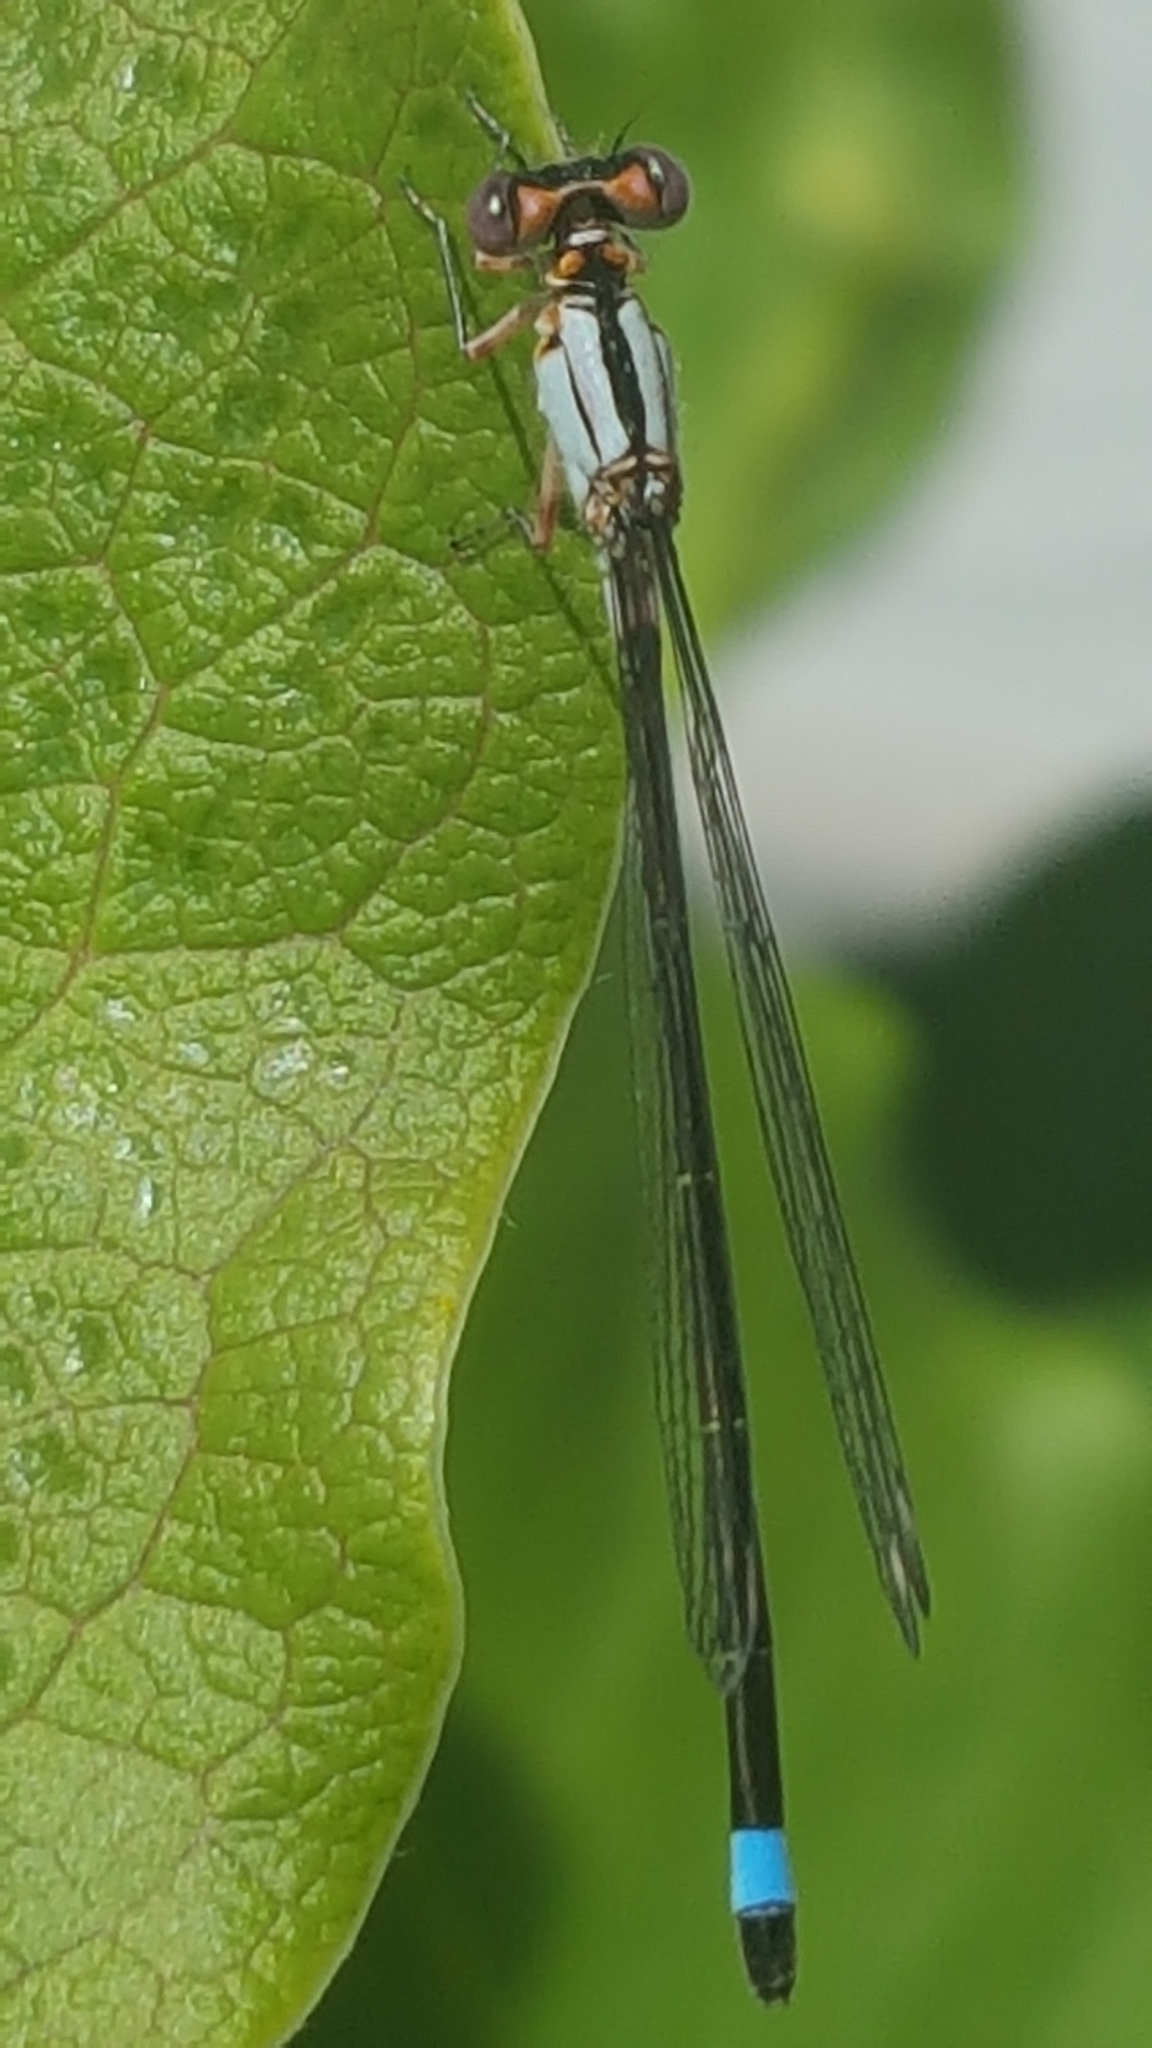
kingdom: Animalia
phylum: Arthropoda
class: Insecta
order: Odonata
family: Coenagrionidae
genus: Ischnura
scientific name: Ischnura cervula
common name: Pacific forktail
